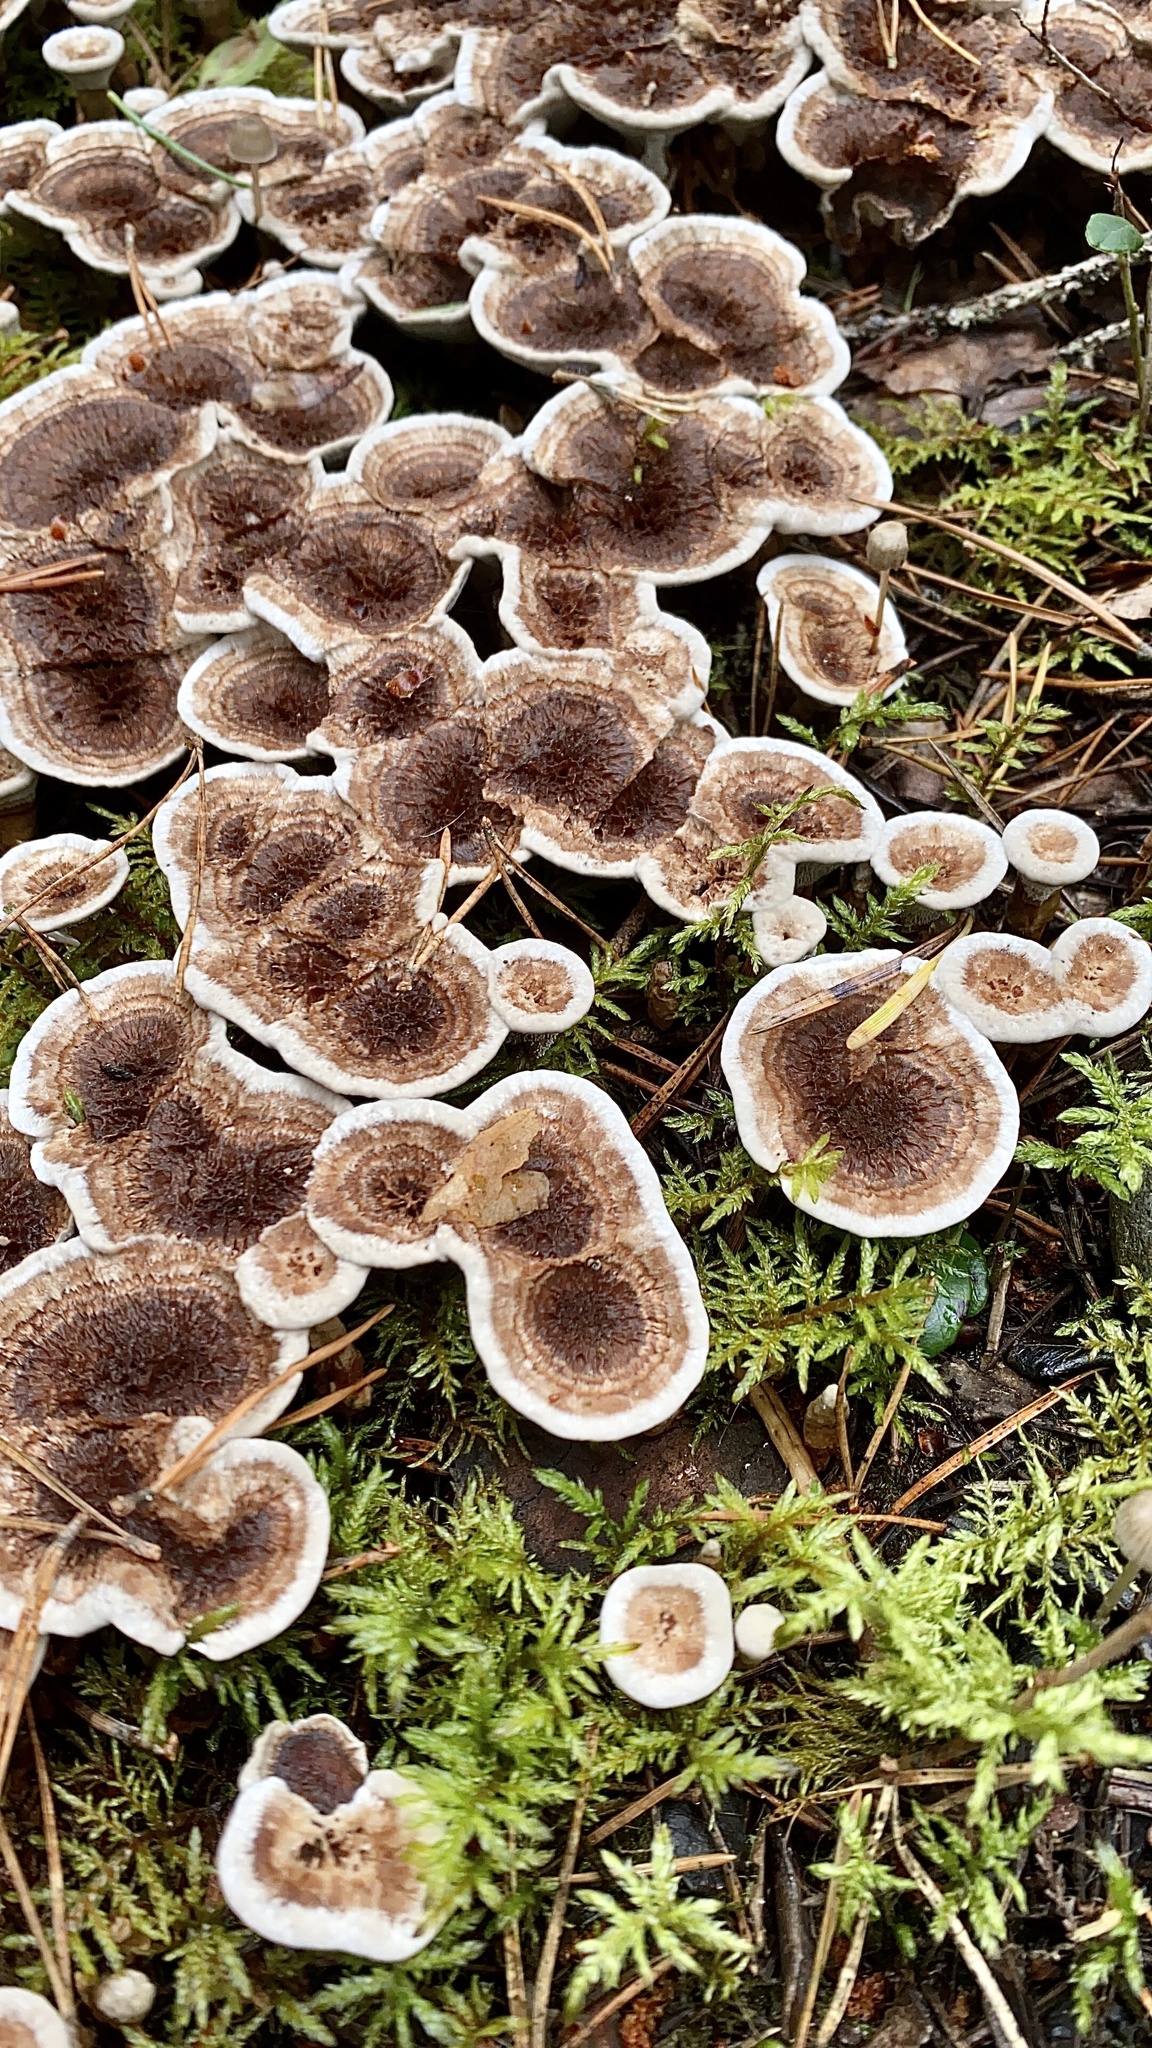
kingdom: Fungi
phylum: Basidiomycota
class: Agaricomycetes
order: Thelephorales
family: Thelephoraceae
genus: Phellodon
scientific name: Phellodon tomentosus
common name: Woolly tooth
